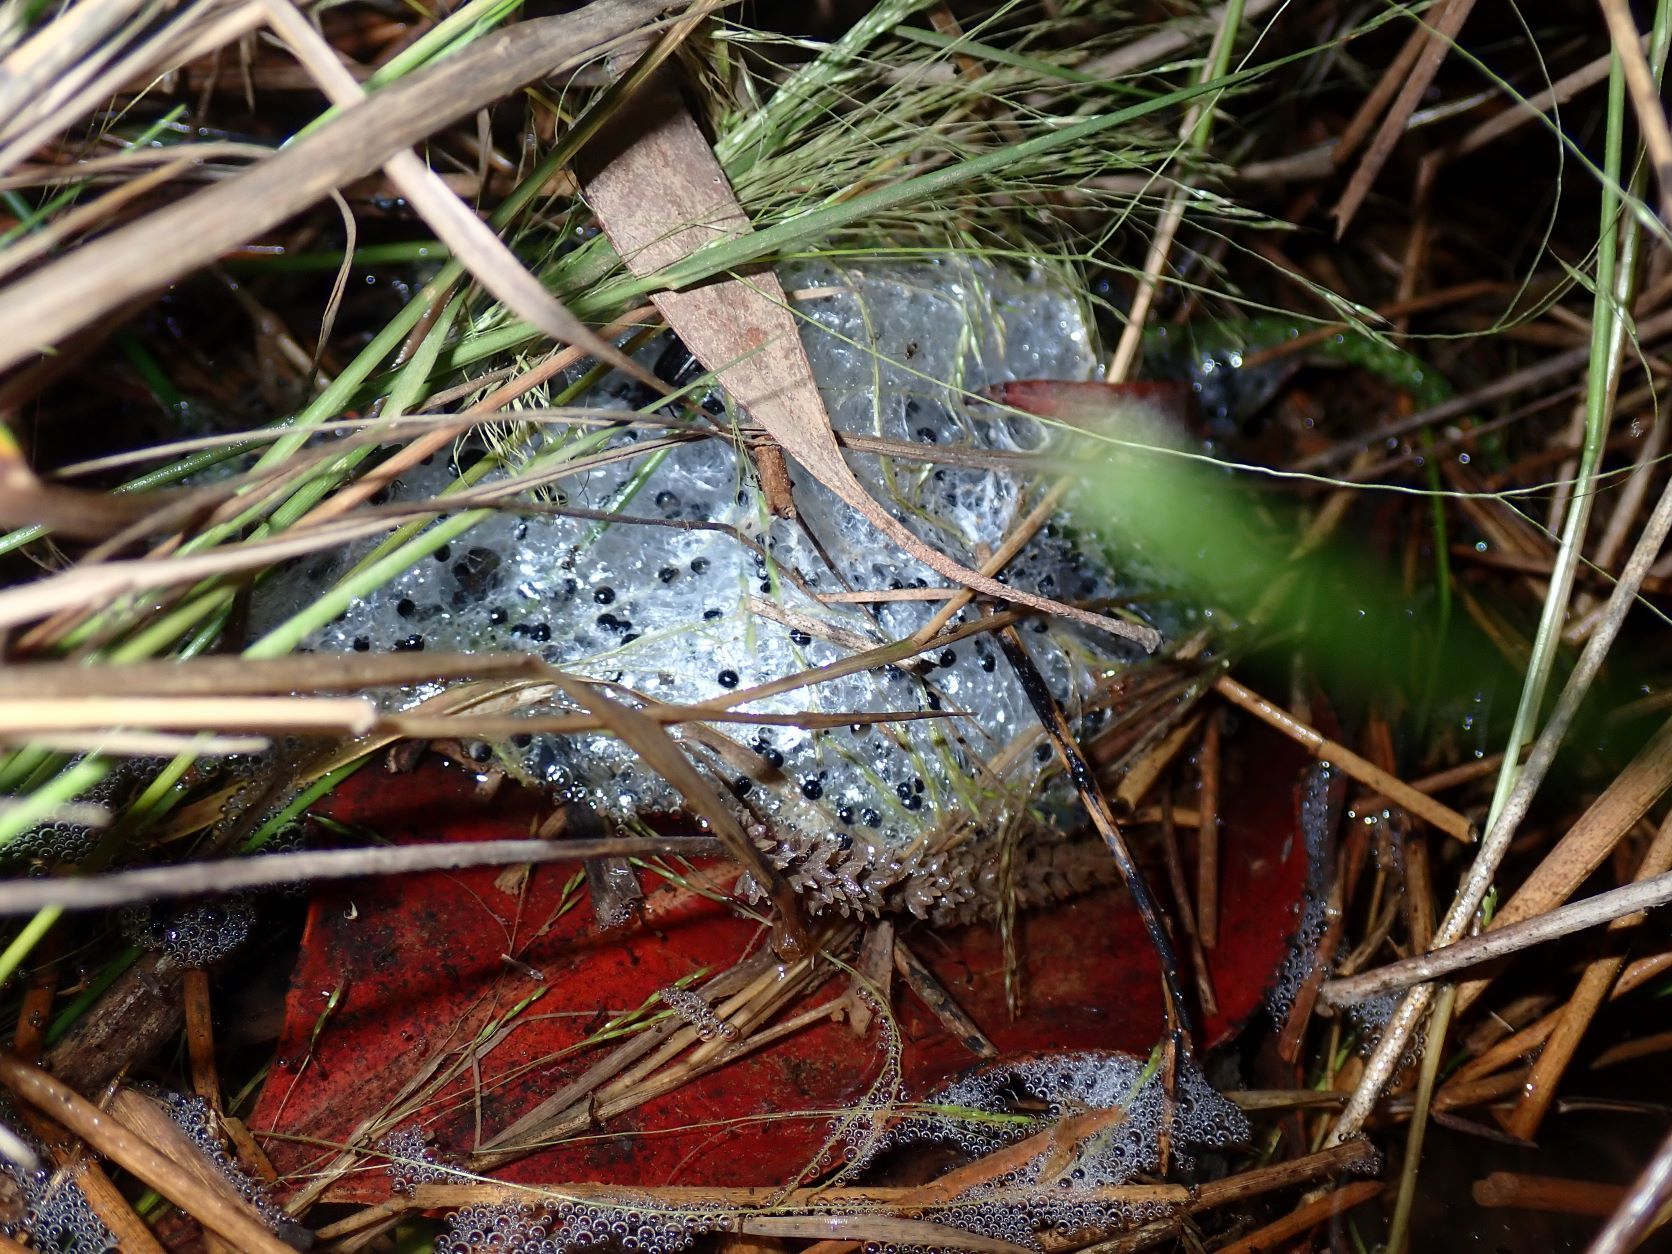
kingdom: Animalia
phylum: Chordata
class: Amphibia
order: Anura
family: Limnodynastidae
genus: Limnodynastes
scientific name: Limnodynastes dumerilii
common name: Banjo frog
